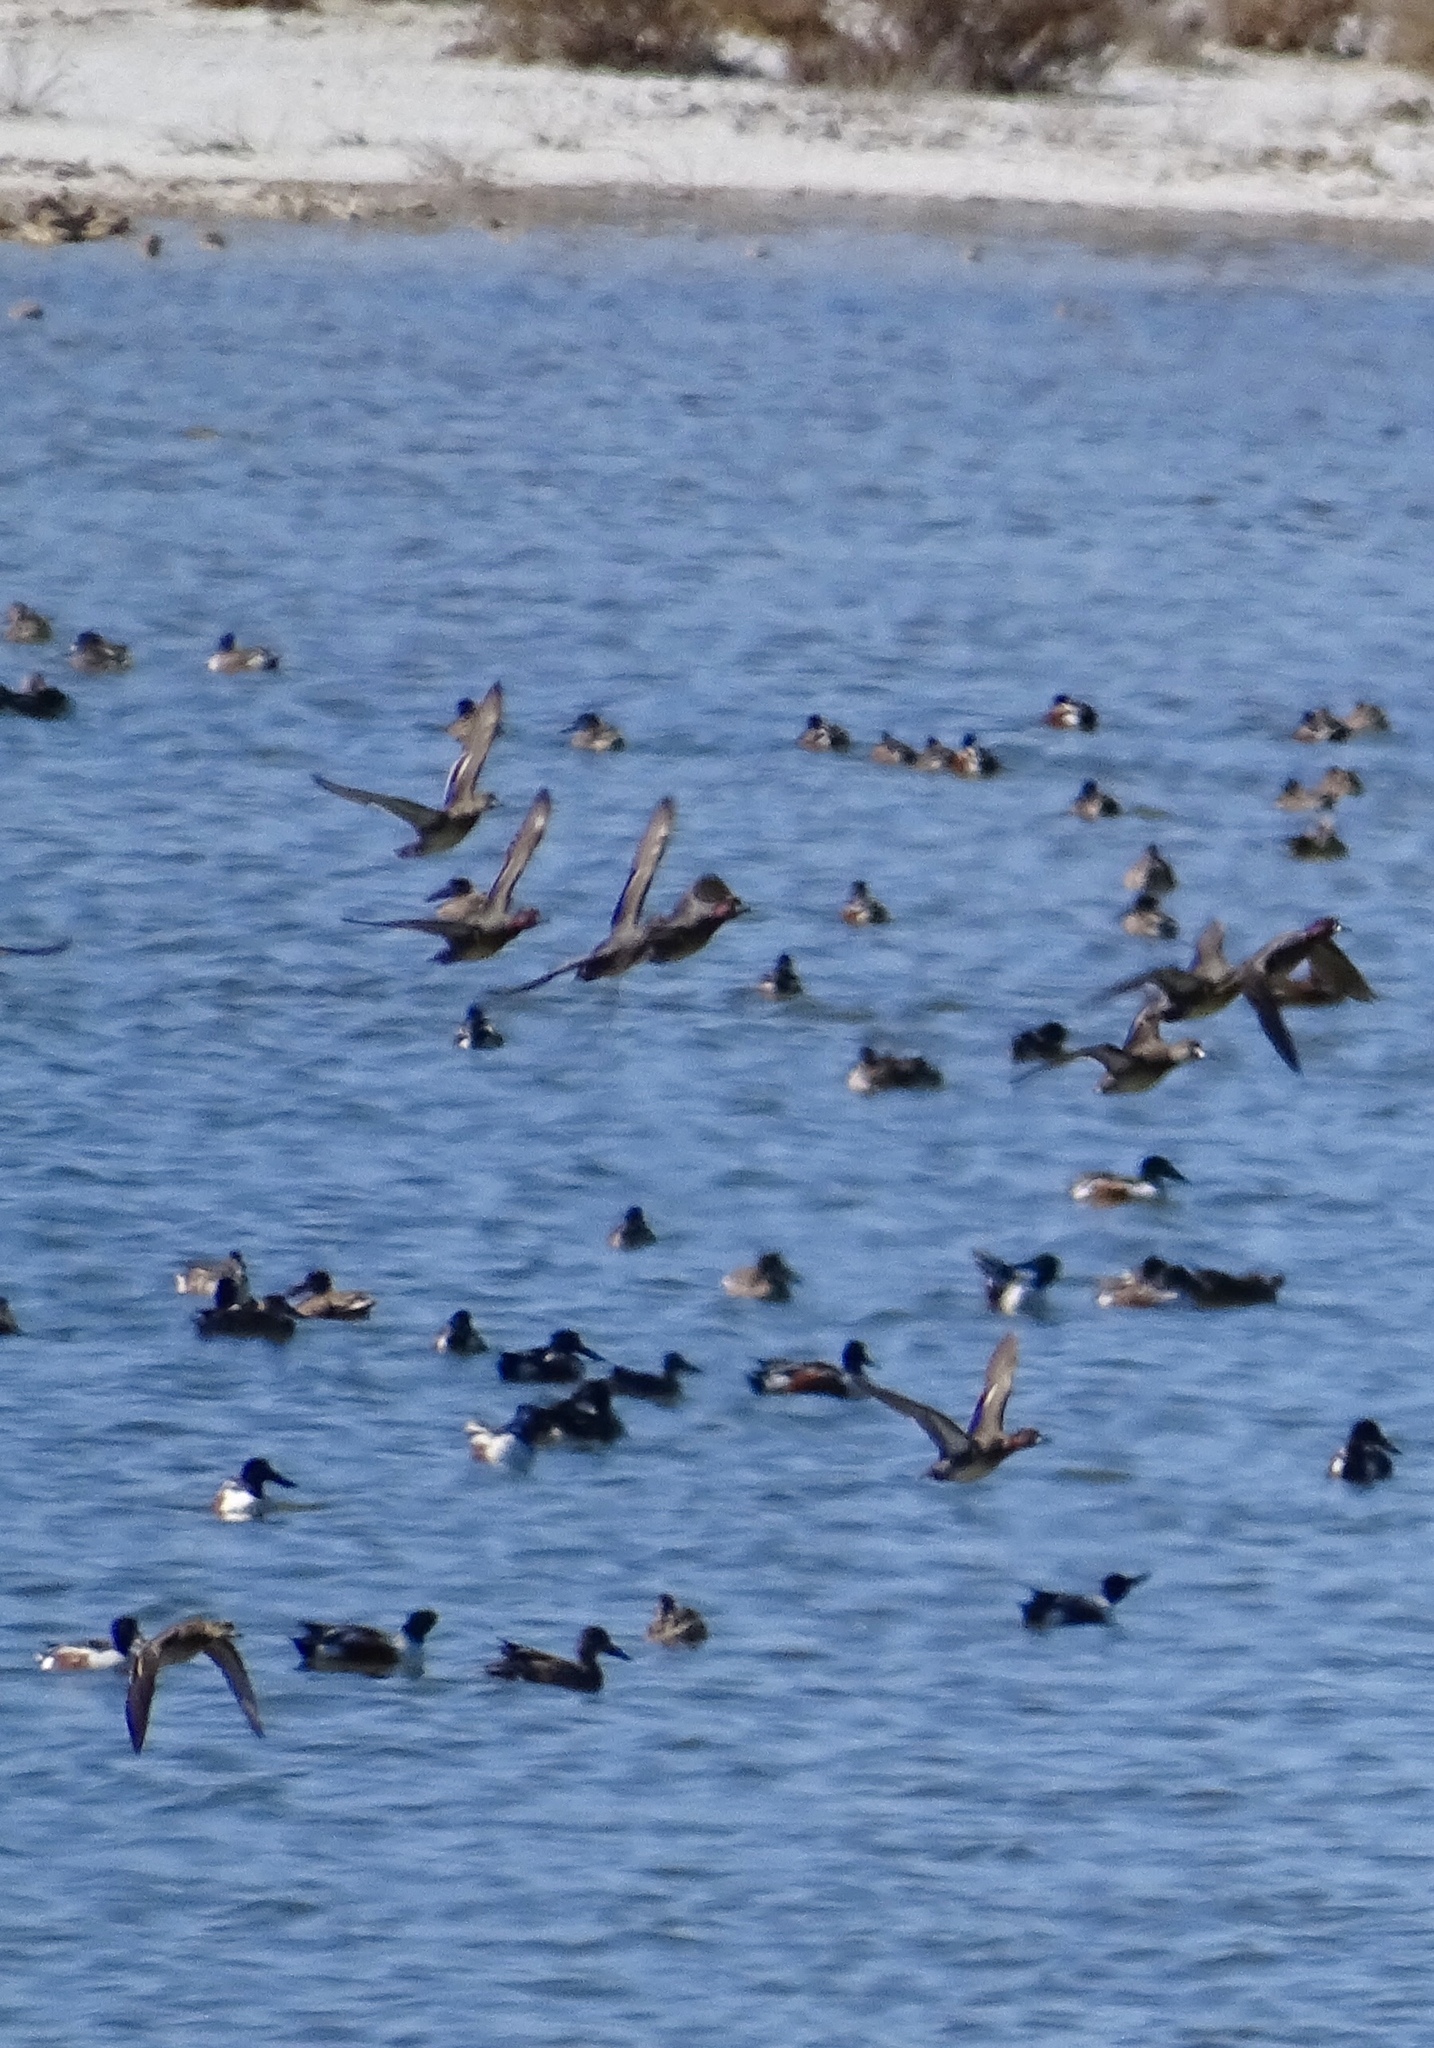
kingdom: Animalia
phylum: Chordata
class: Aves
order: Anseriformes
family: Anatidae
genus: Anas
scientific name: Anas crecca
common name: Eurasian teal
